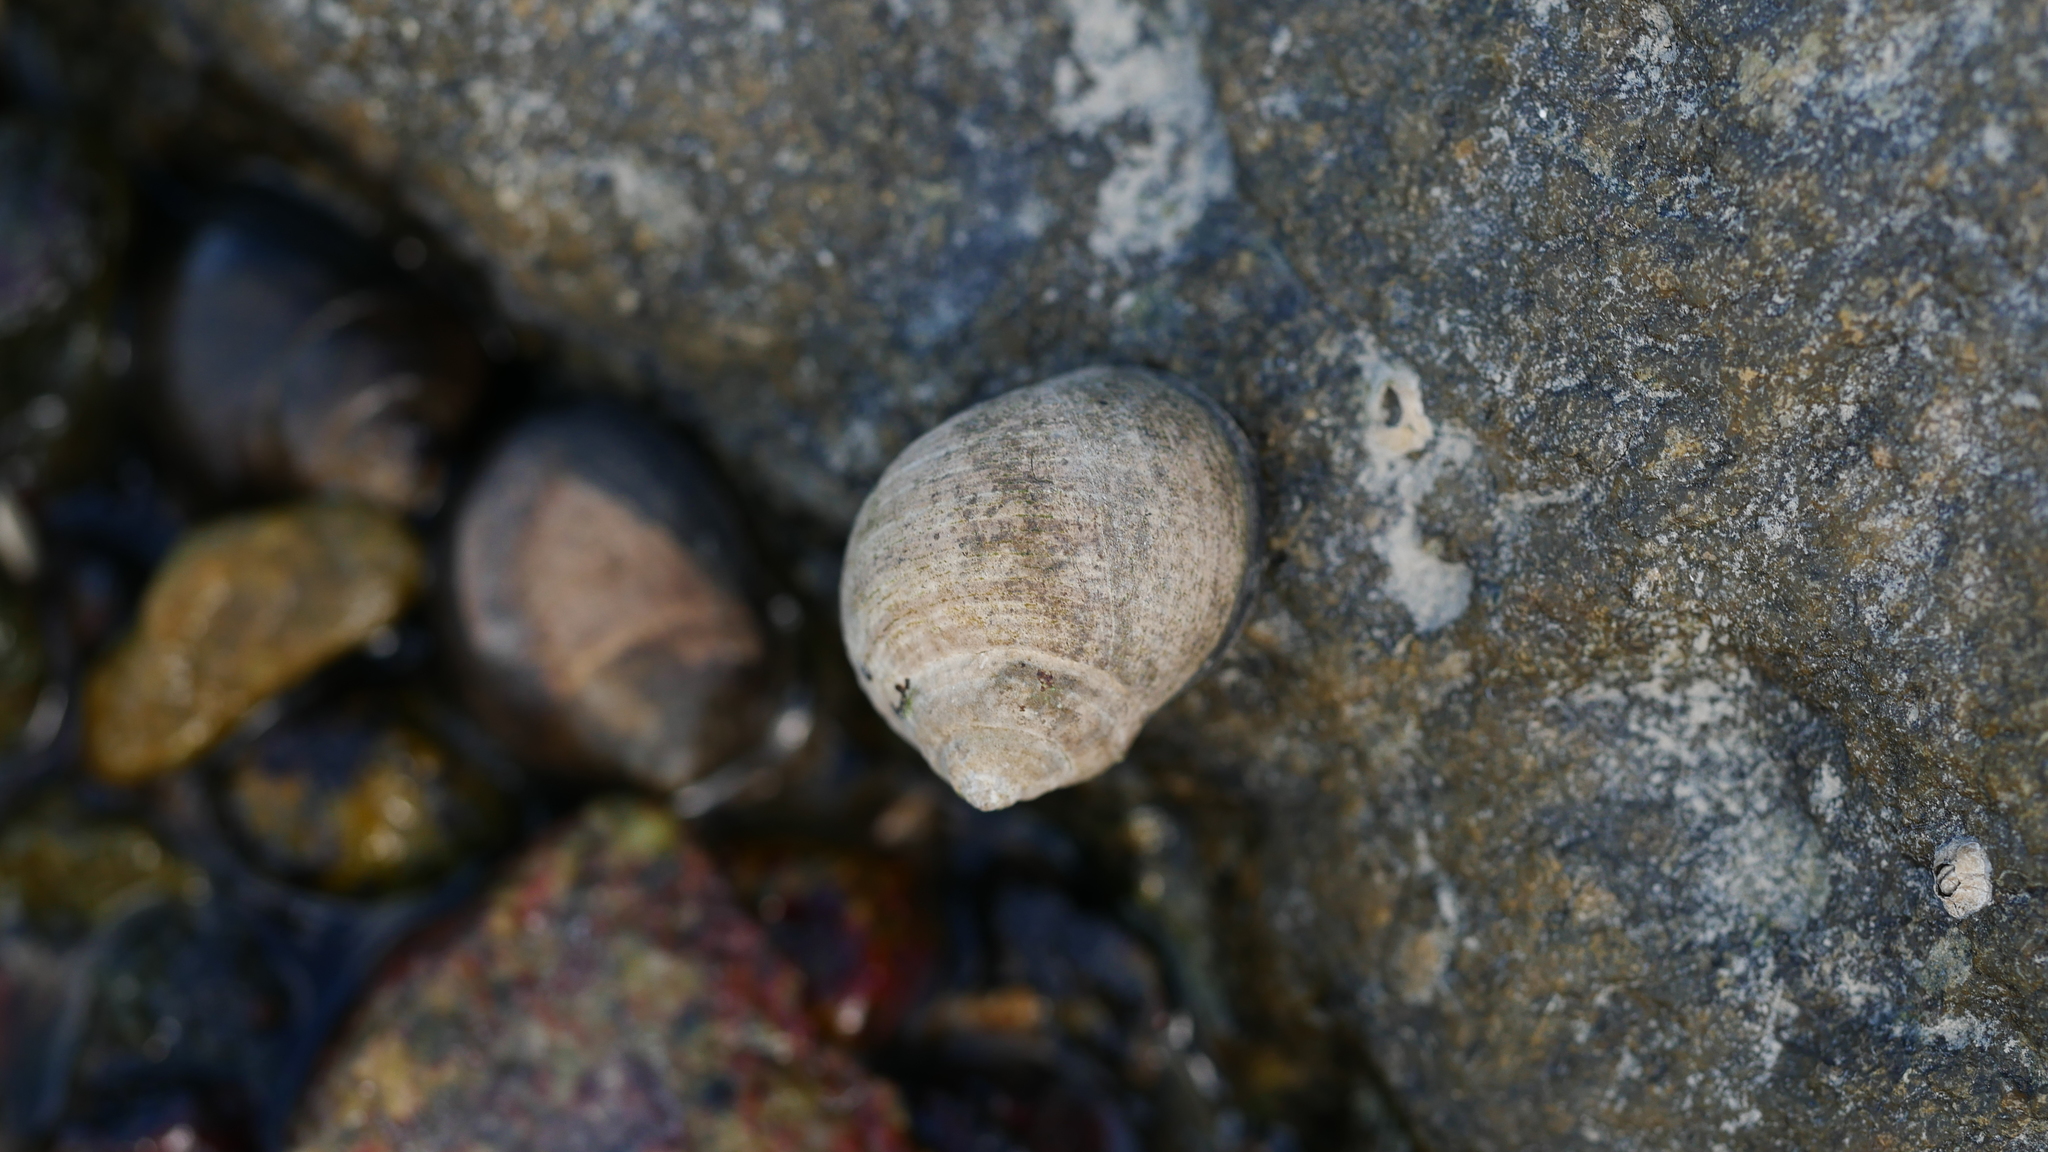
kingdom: Animalia
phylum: Mollusca
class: Gastropoda
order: Littorinimorpha
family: Littorinidae
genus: Littorina
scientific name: Littorina littorea
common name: Common periwinkle
